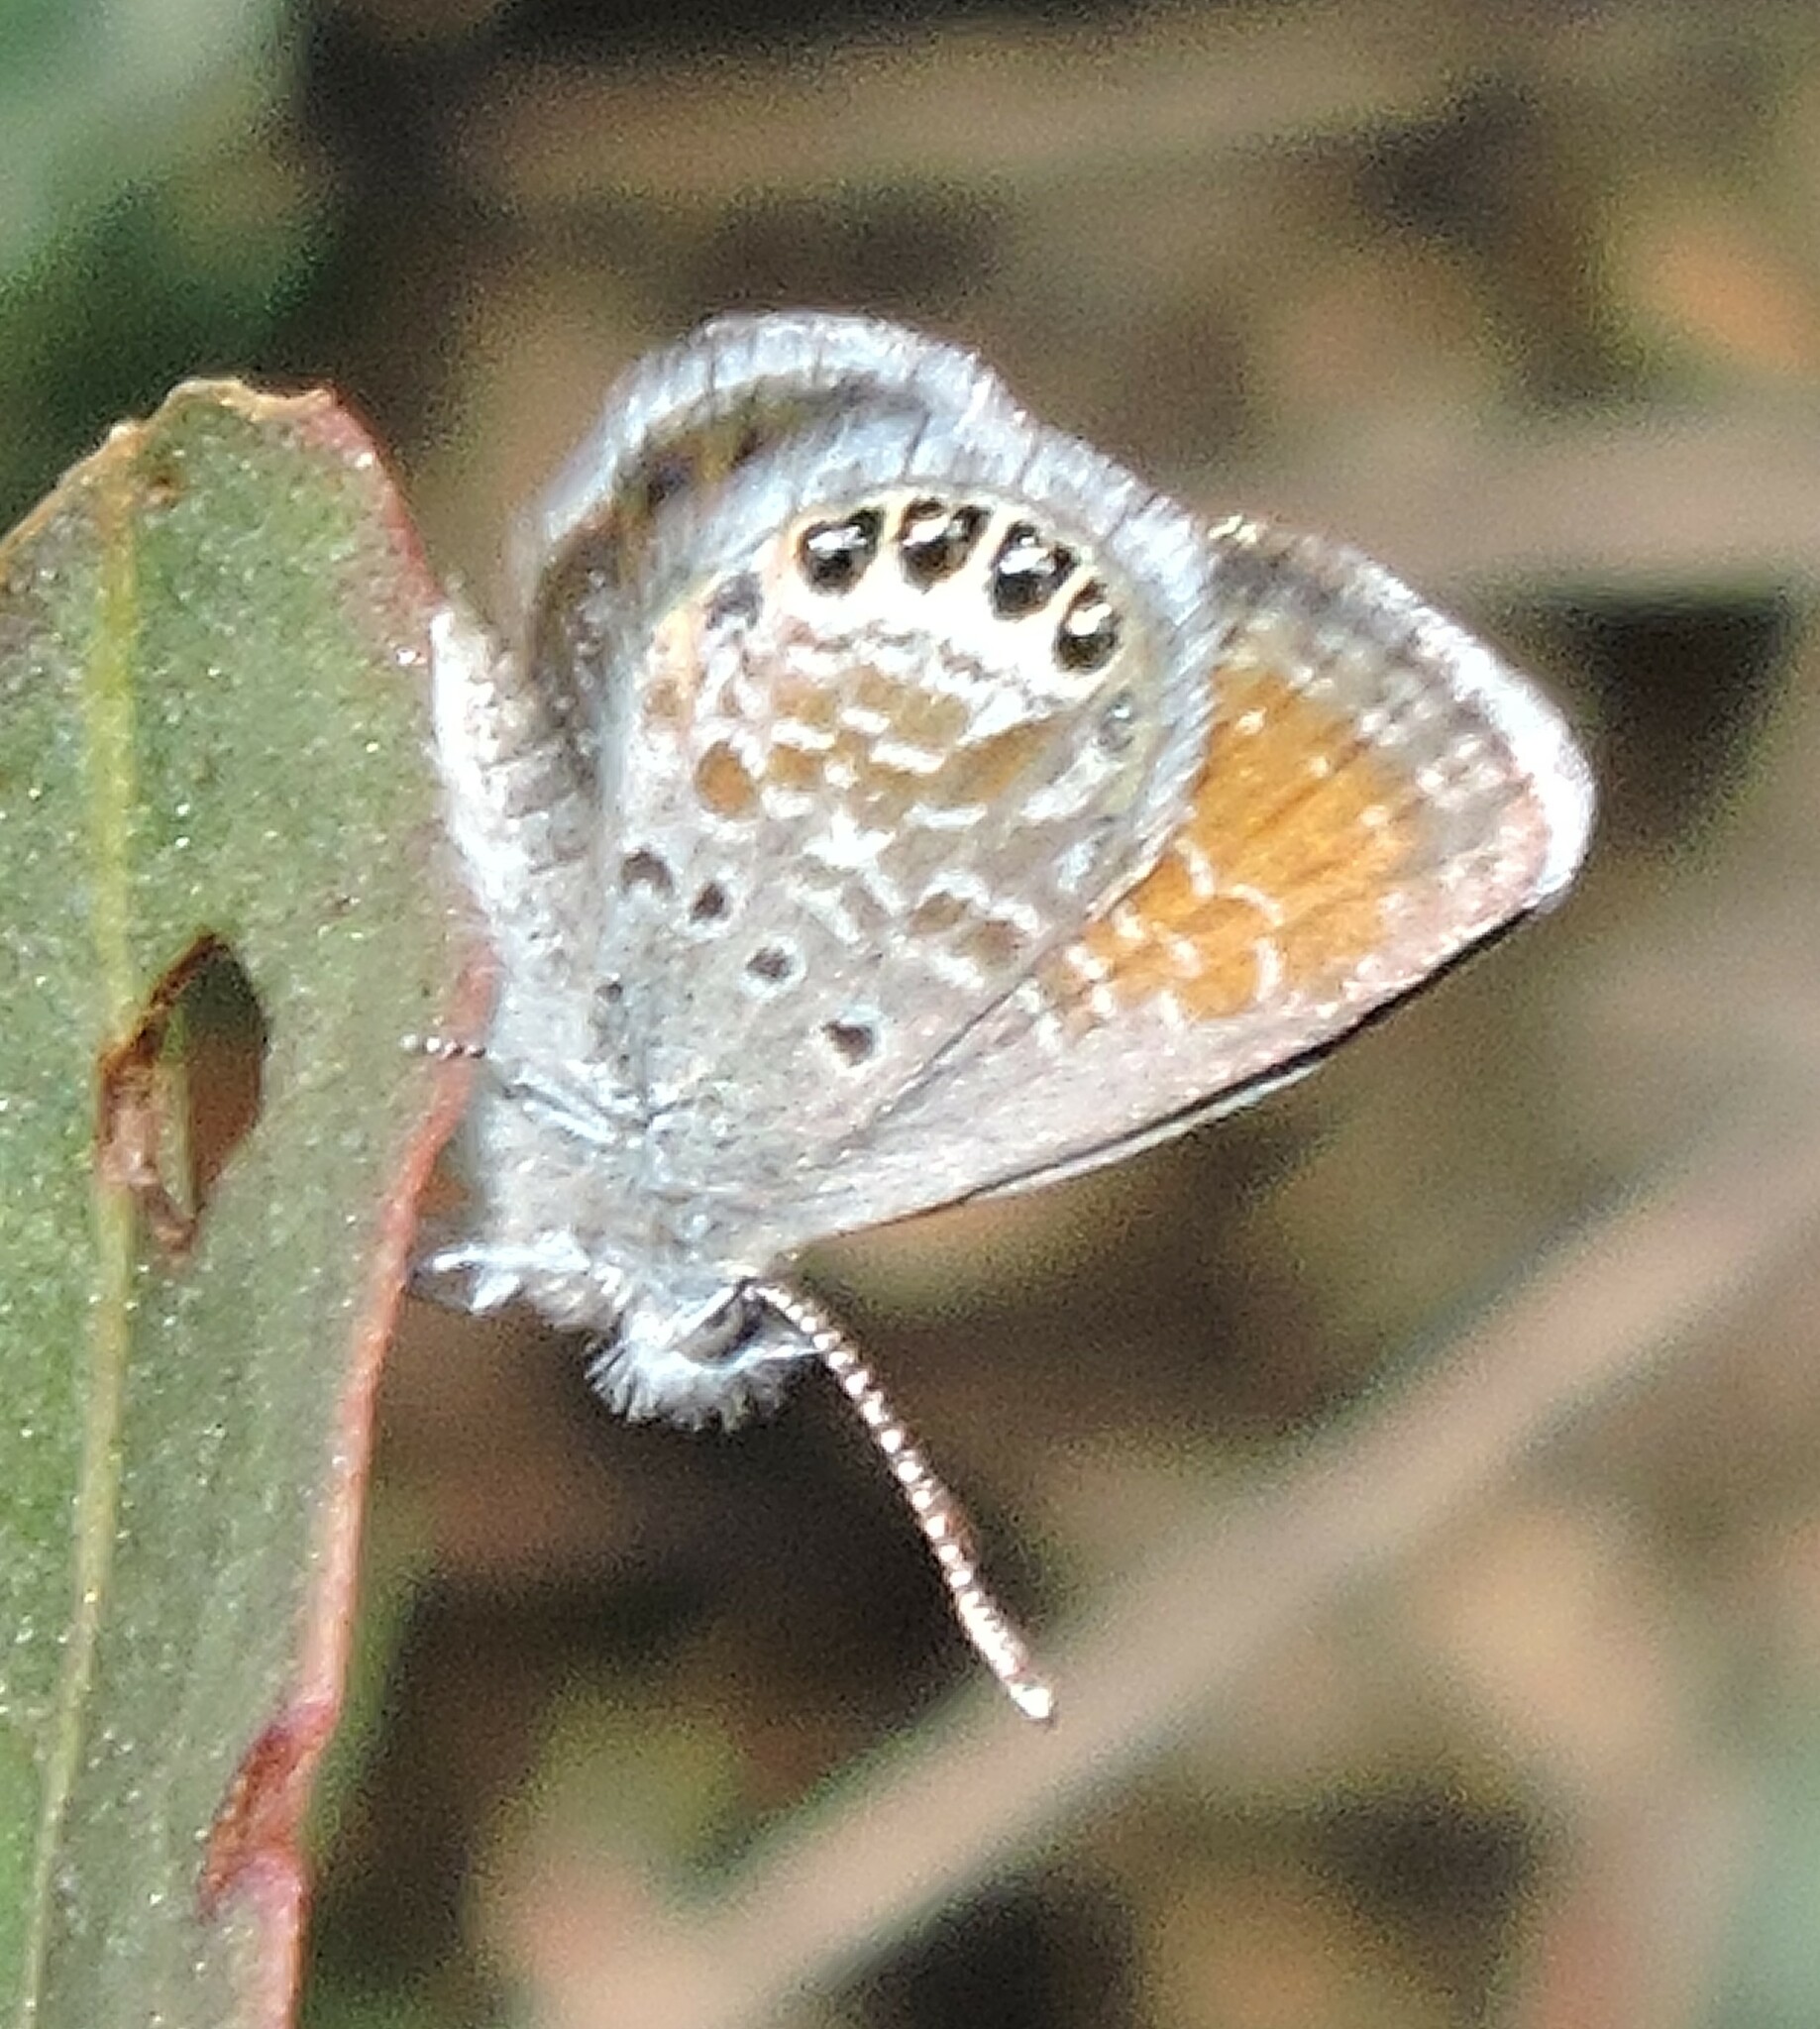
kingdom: Animalia
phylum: Arthropoda
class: Insecta
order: Lepidoptera
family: Lycaenidae
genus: Brephidium
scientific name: Brephidium exilis
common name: Pygmy blue
